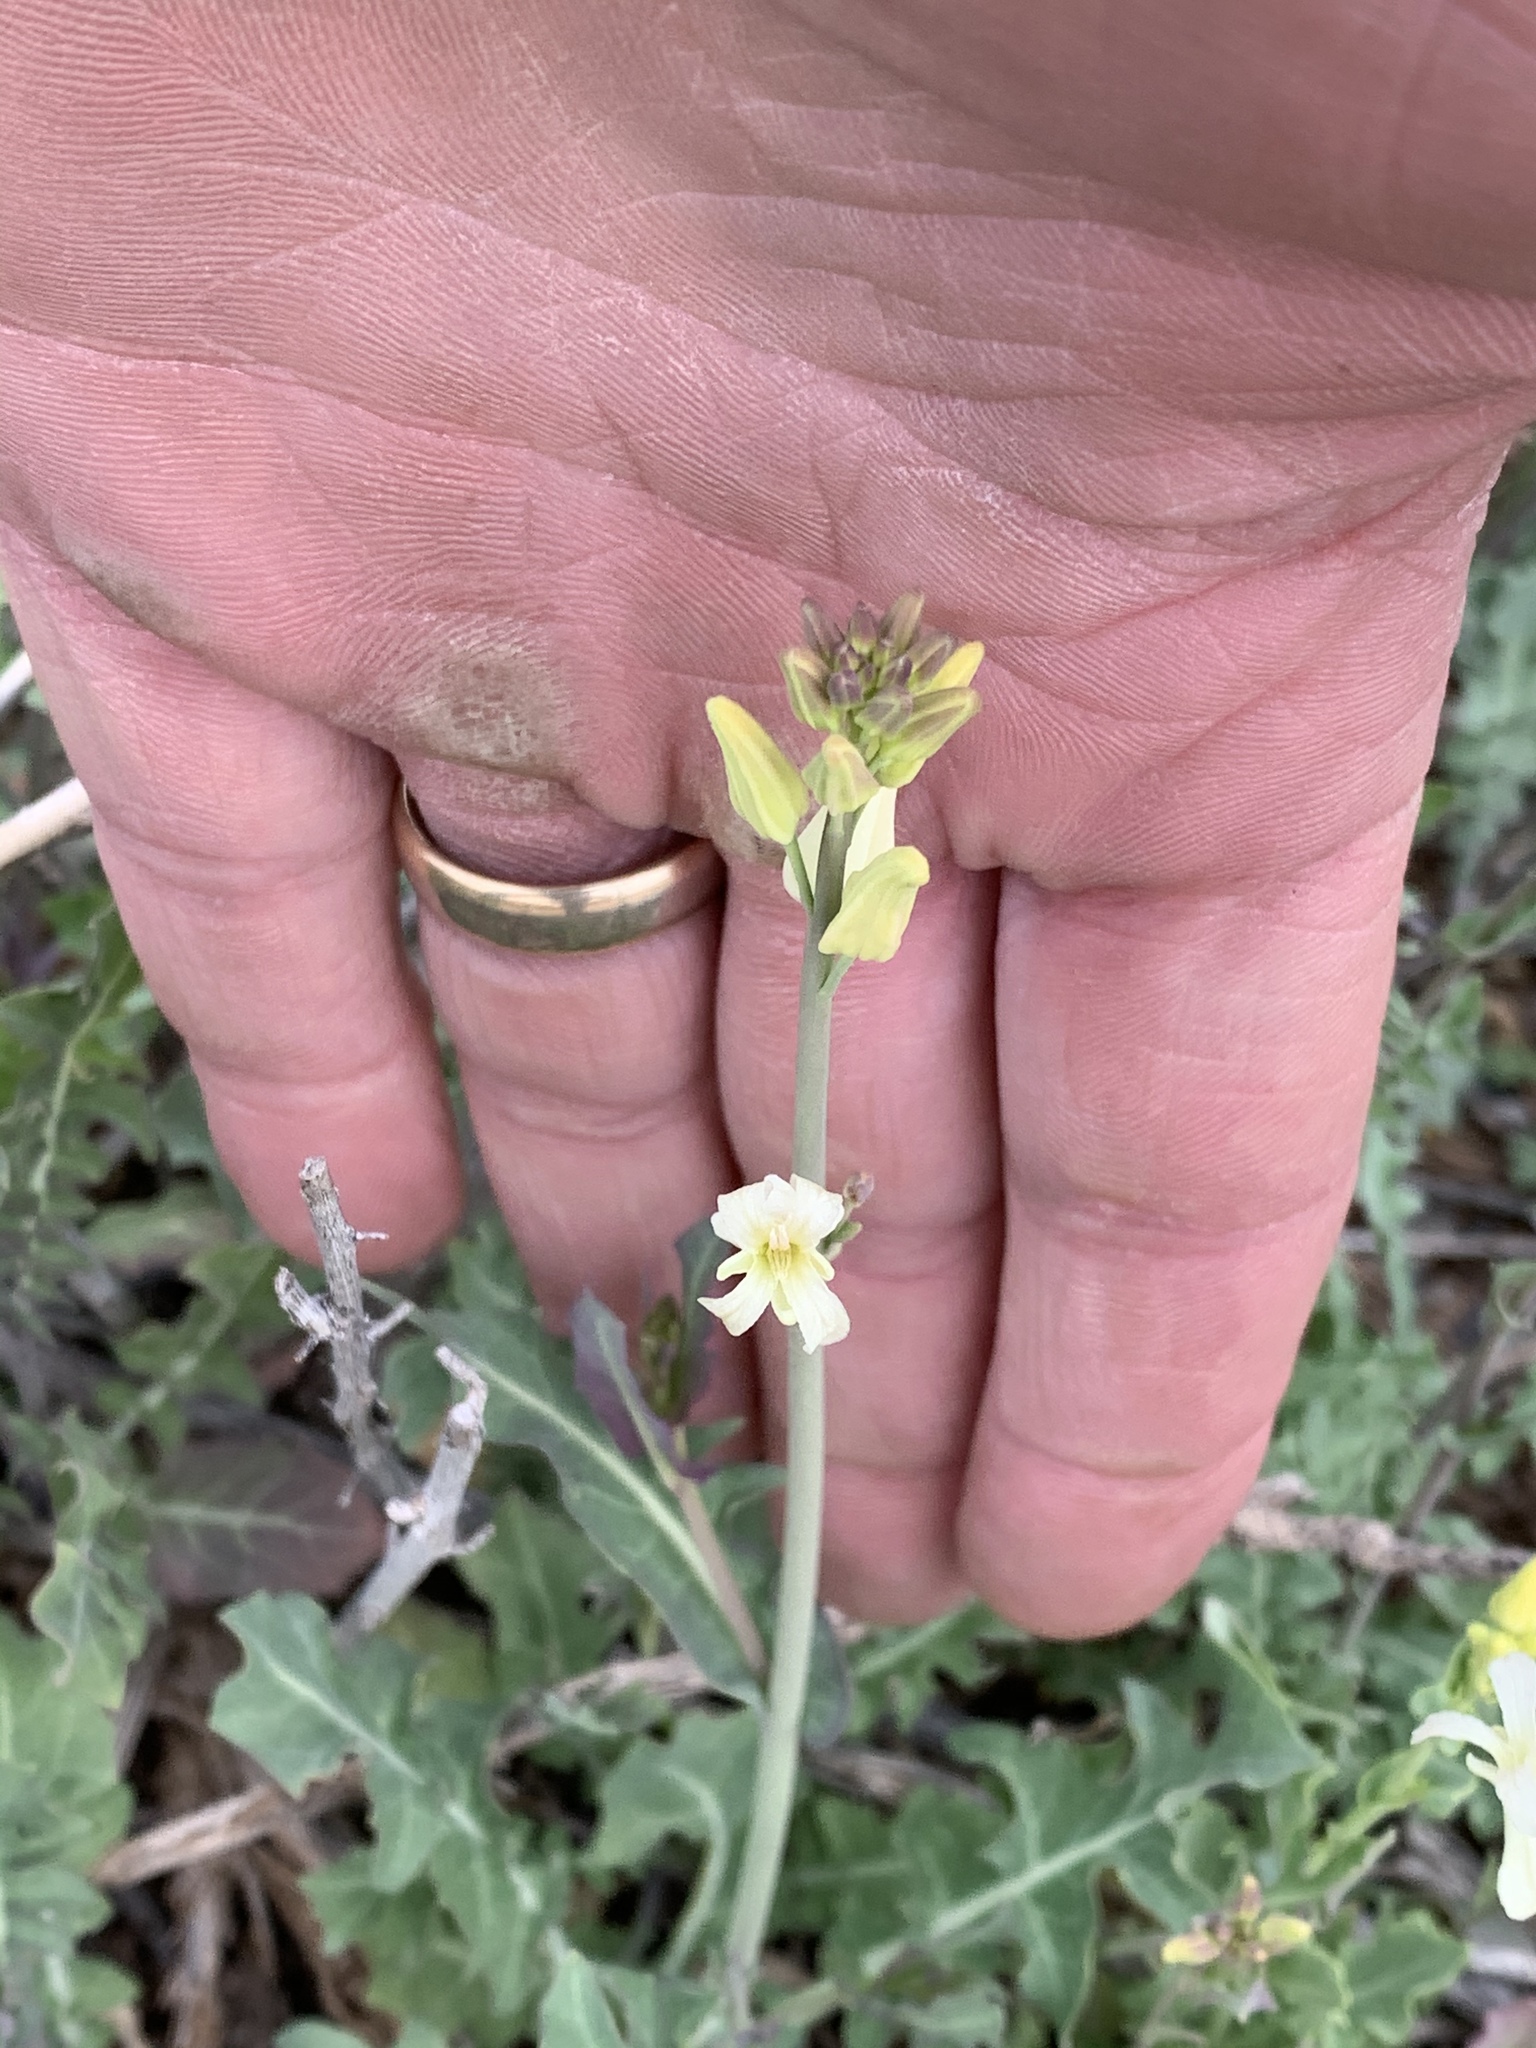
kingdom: Plantae
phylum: Tracheophyta
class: Magnoliopsida
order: Brassicales
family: Brassicaceae
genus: Streptanthus
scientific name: Streptanthus carinatus
